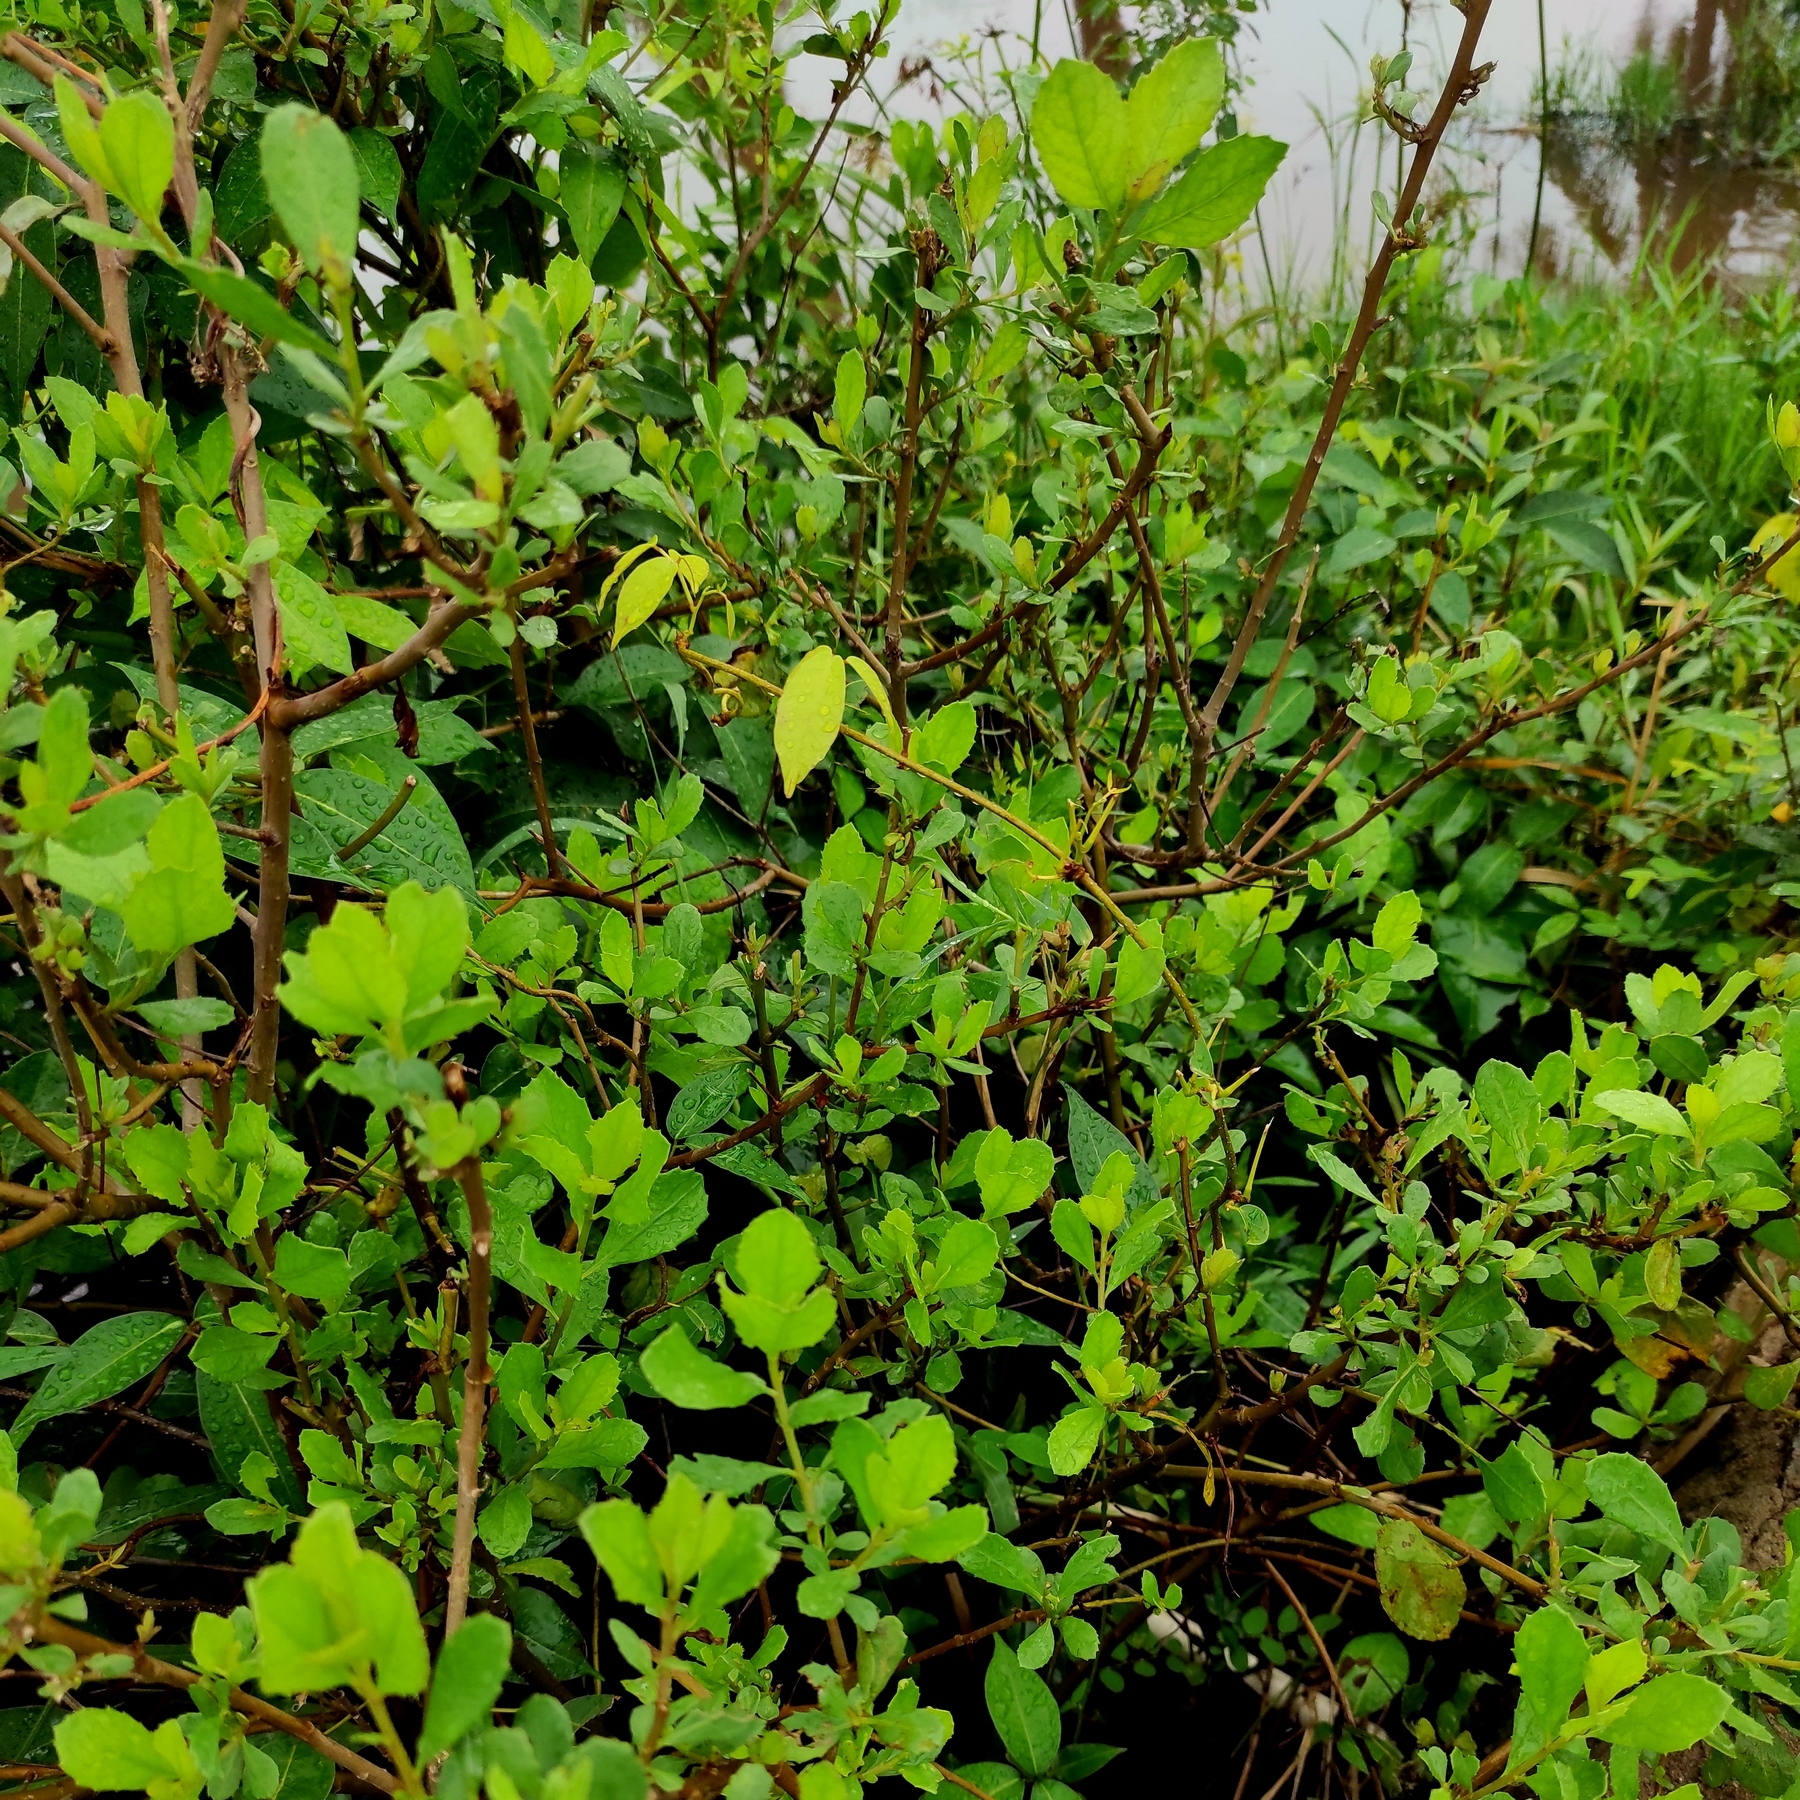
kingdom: Plantae
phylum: Tracheophyta
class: Magnoliopsida
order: Asterales
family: Asteraceae
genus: Pluchea
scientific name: Pluchea indica
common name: Indian fleabane
